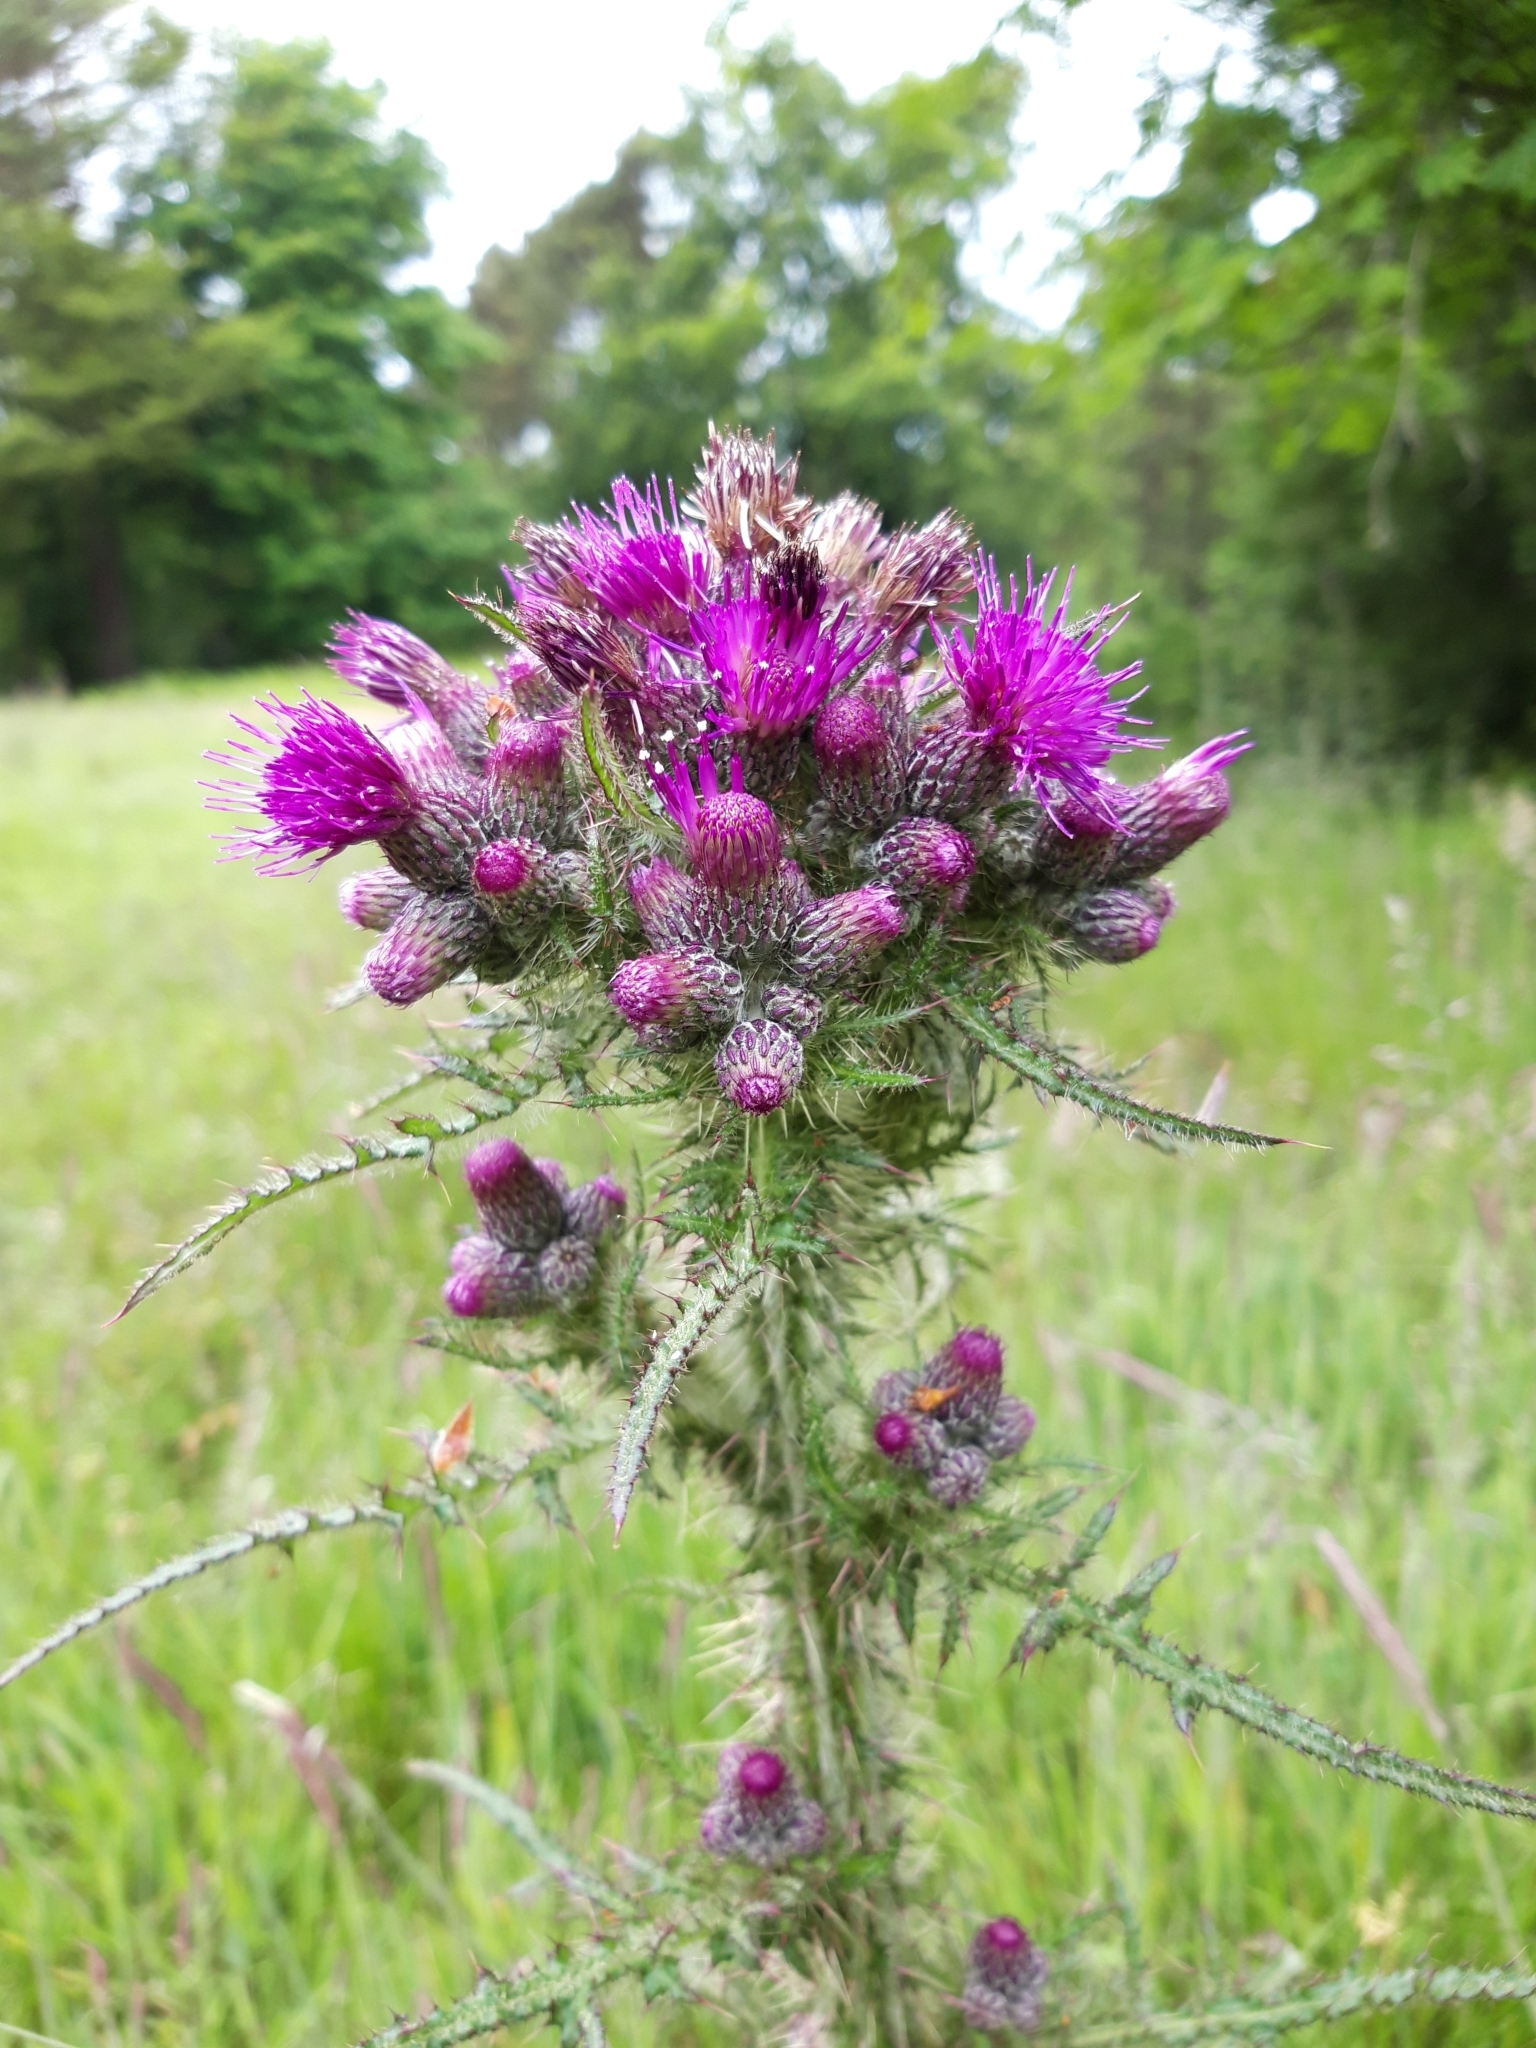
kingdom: Plantae
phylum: Tracheophyta
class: Magnoliopsida
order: Asterales
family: Asteraceae
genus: Cirsium
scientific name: Cirsium palustre
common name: Marsh thistle
